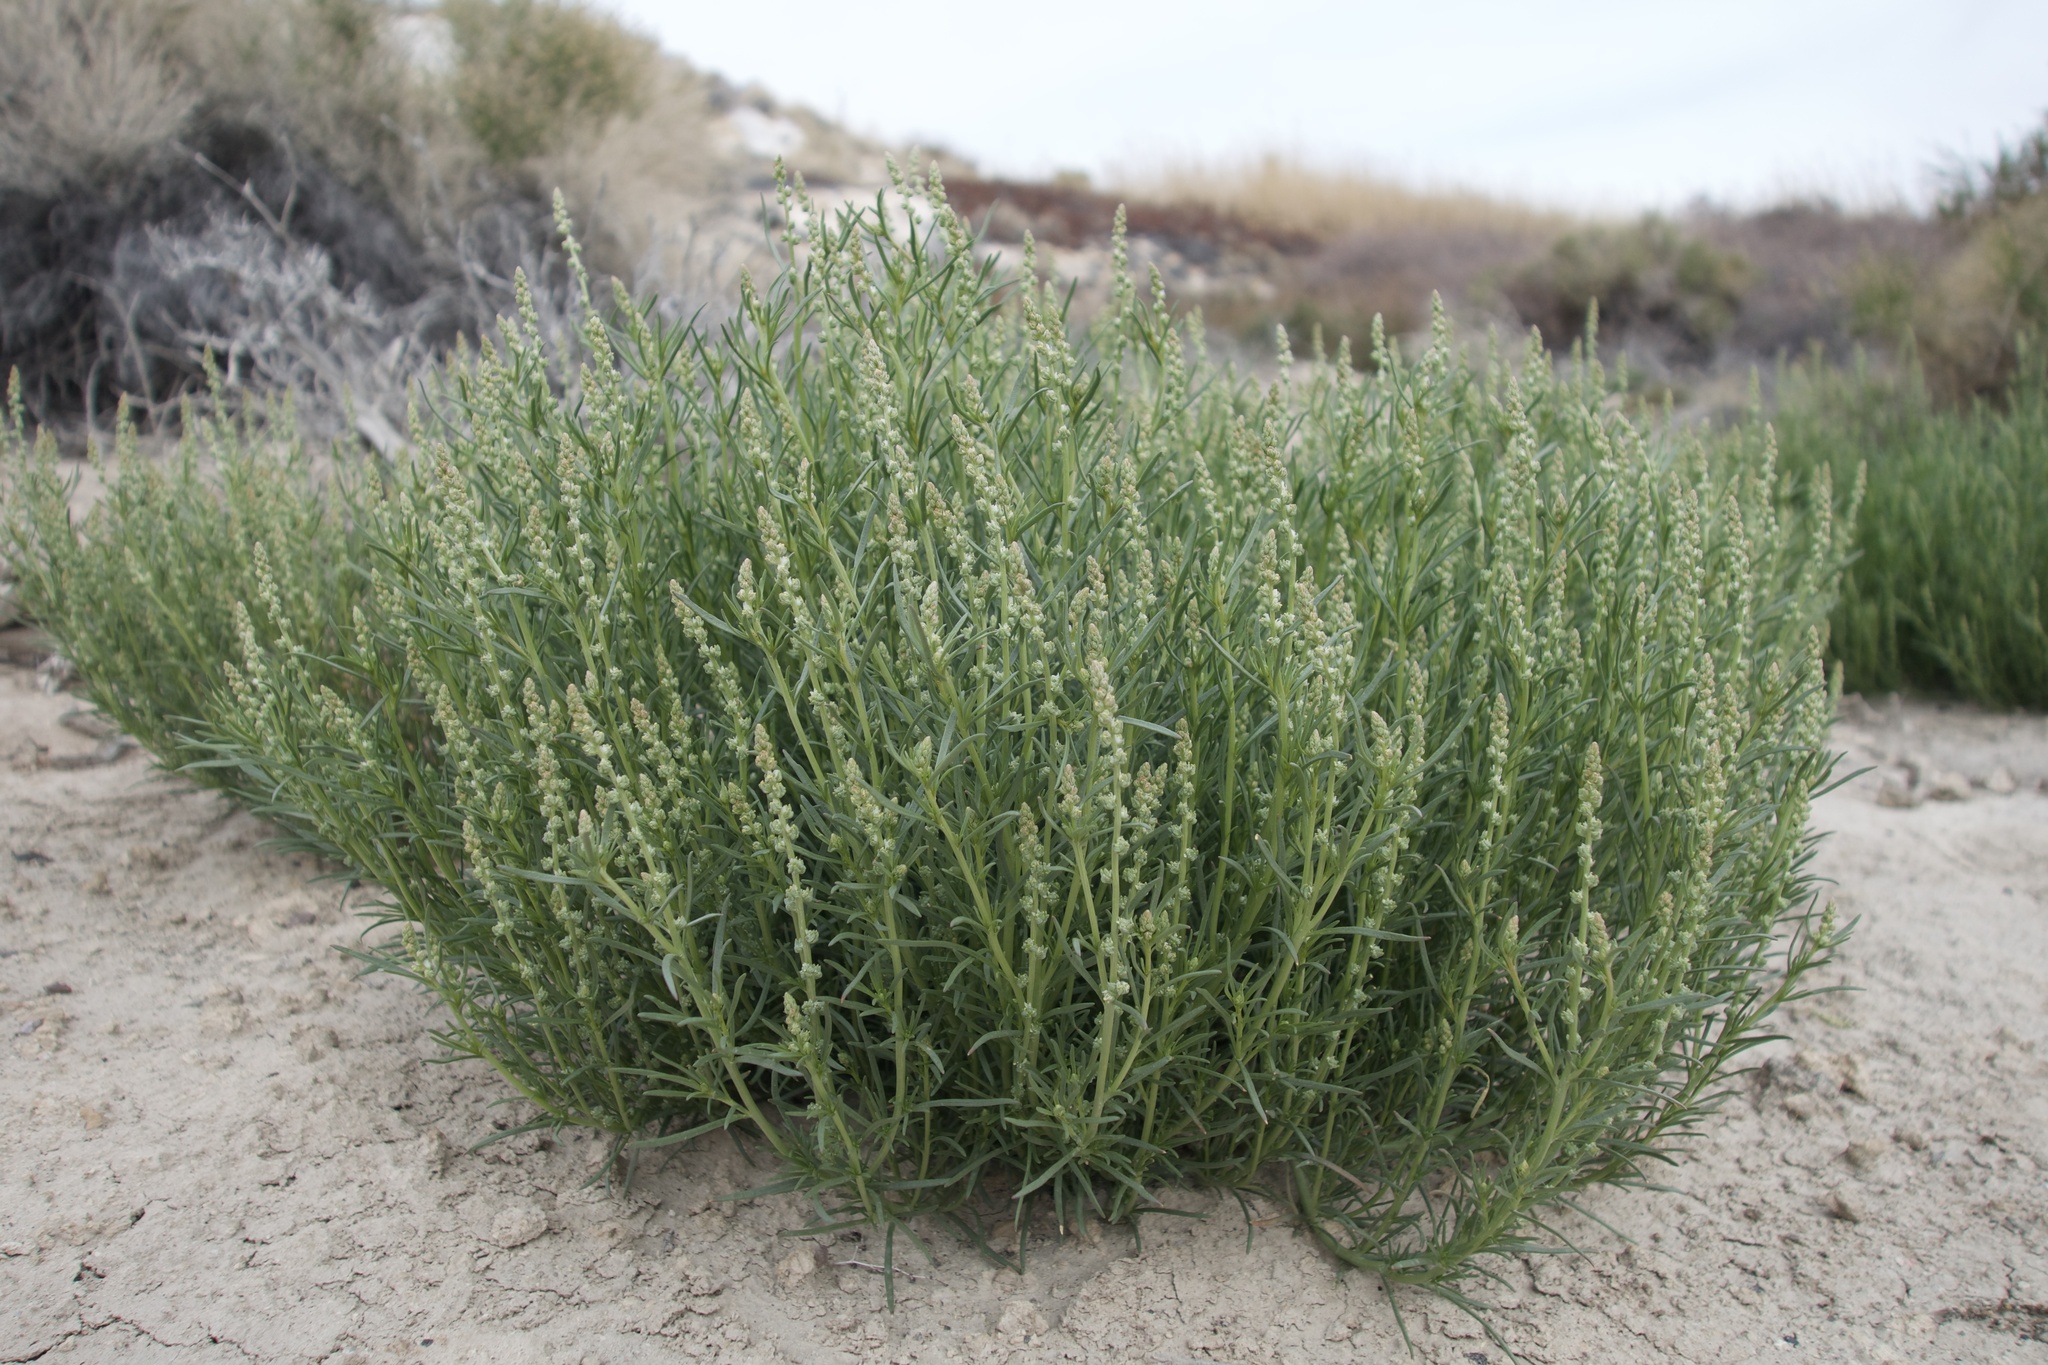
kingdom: Plantae
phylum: Tracheophyta
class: Magnoliopsida
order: Brassicales
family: Resedaceae
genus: Oligomeris
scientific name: Oligomeris linifolia
